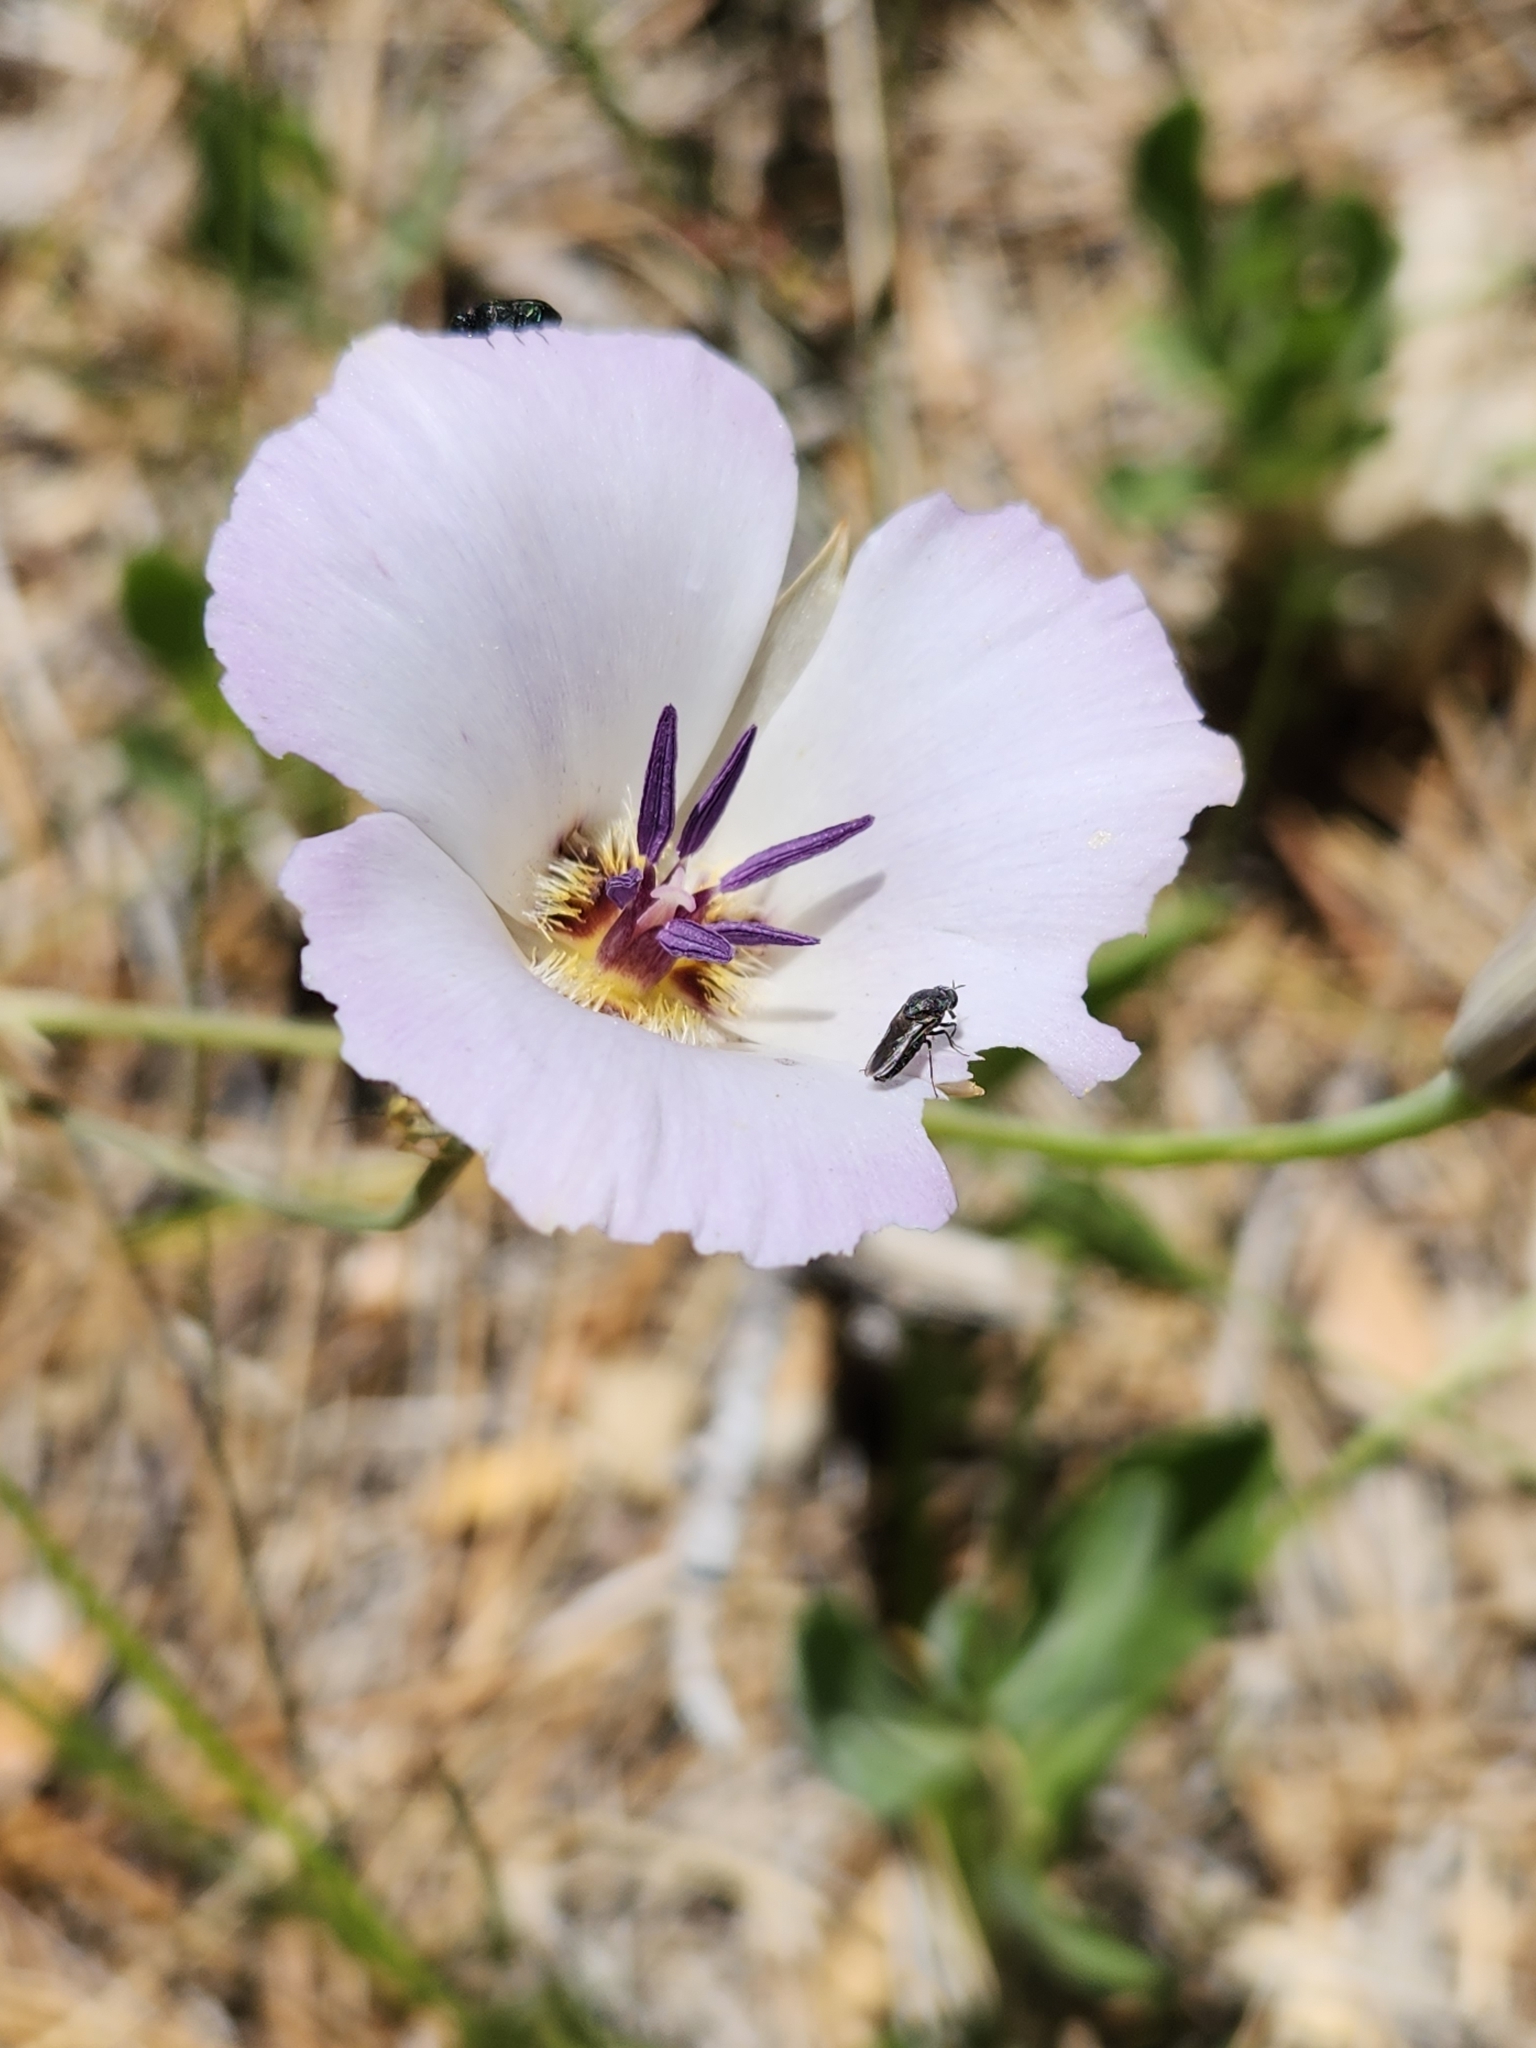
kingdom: Plantae
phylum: Tracheophyta
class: Liliopsida
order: Liliales
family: Liliaceae
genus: Calochortus
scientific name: Calochortus invenustus
